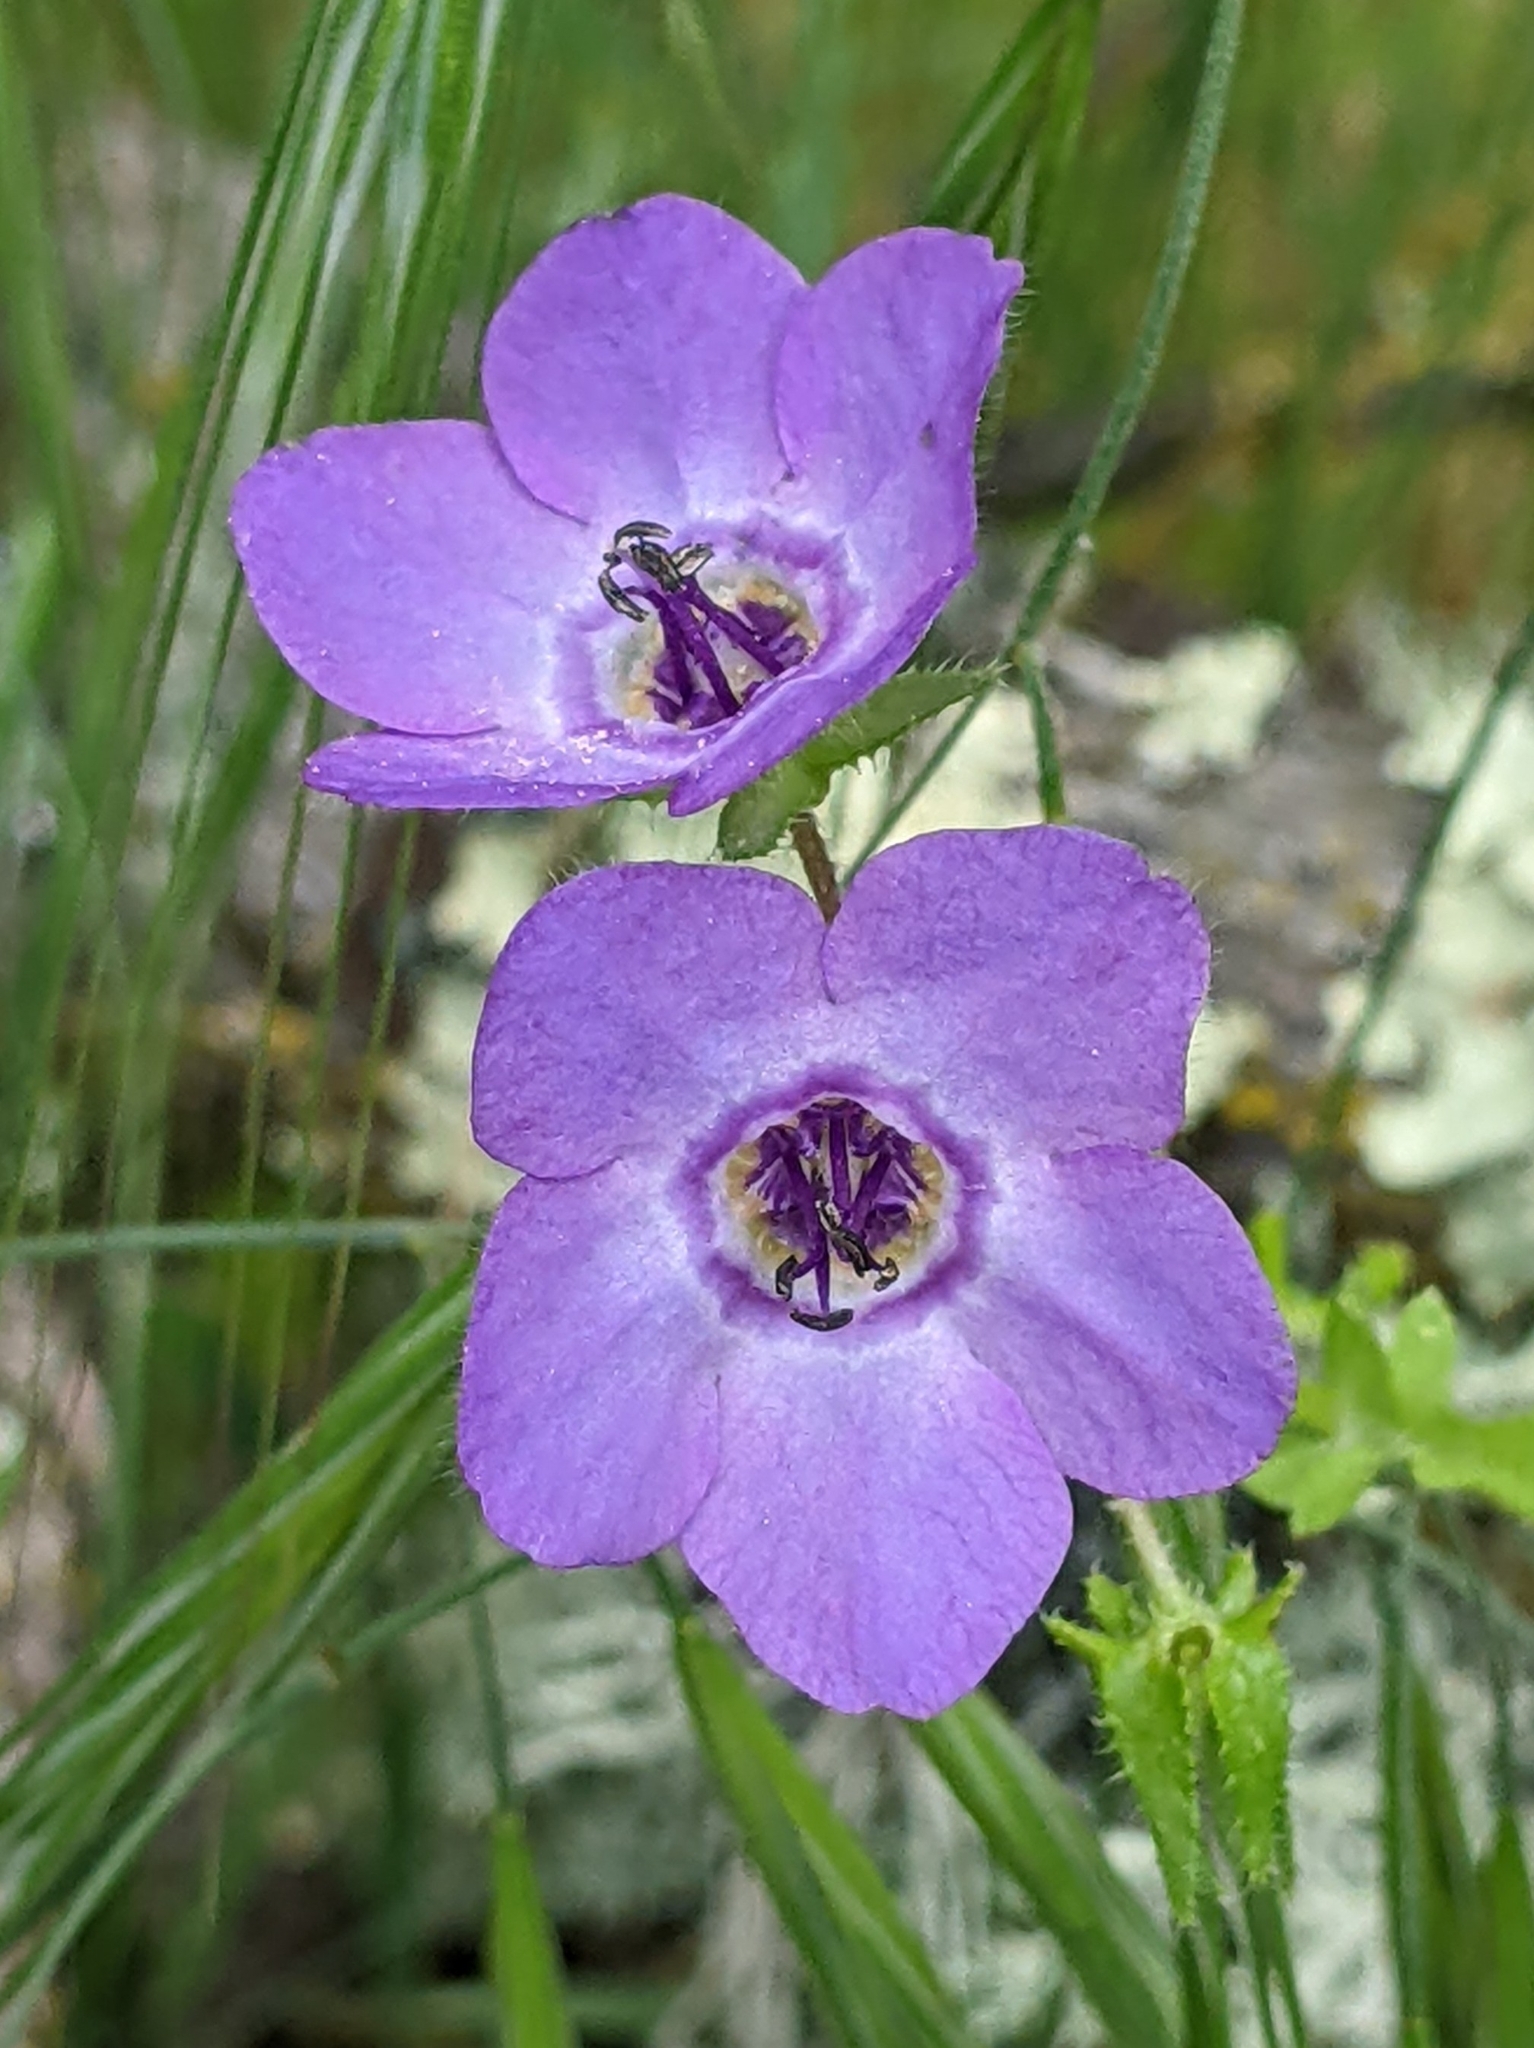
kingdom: Plantae
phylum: Tracheophyta
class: Magnoliopsida
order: Boraginales
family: Hydrophyllaceae
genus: Pholistoma
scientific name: Pholistoma auritum
